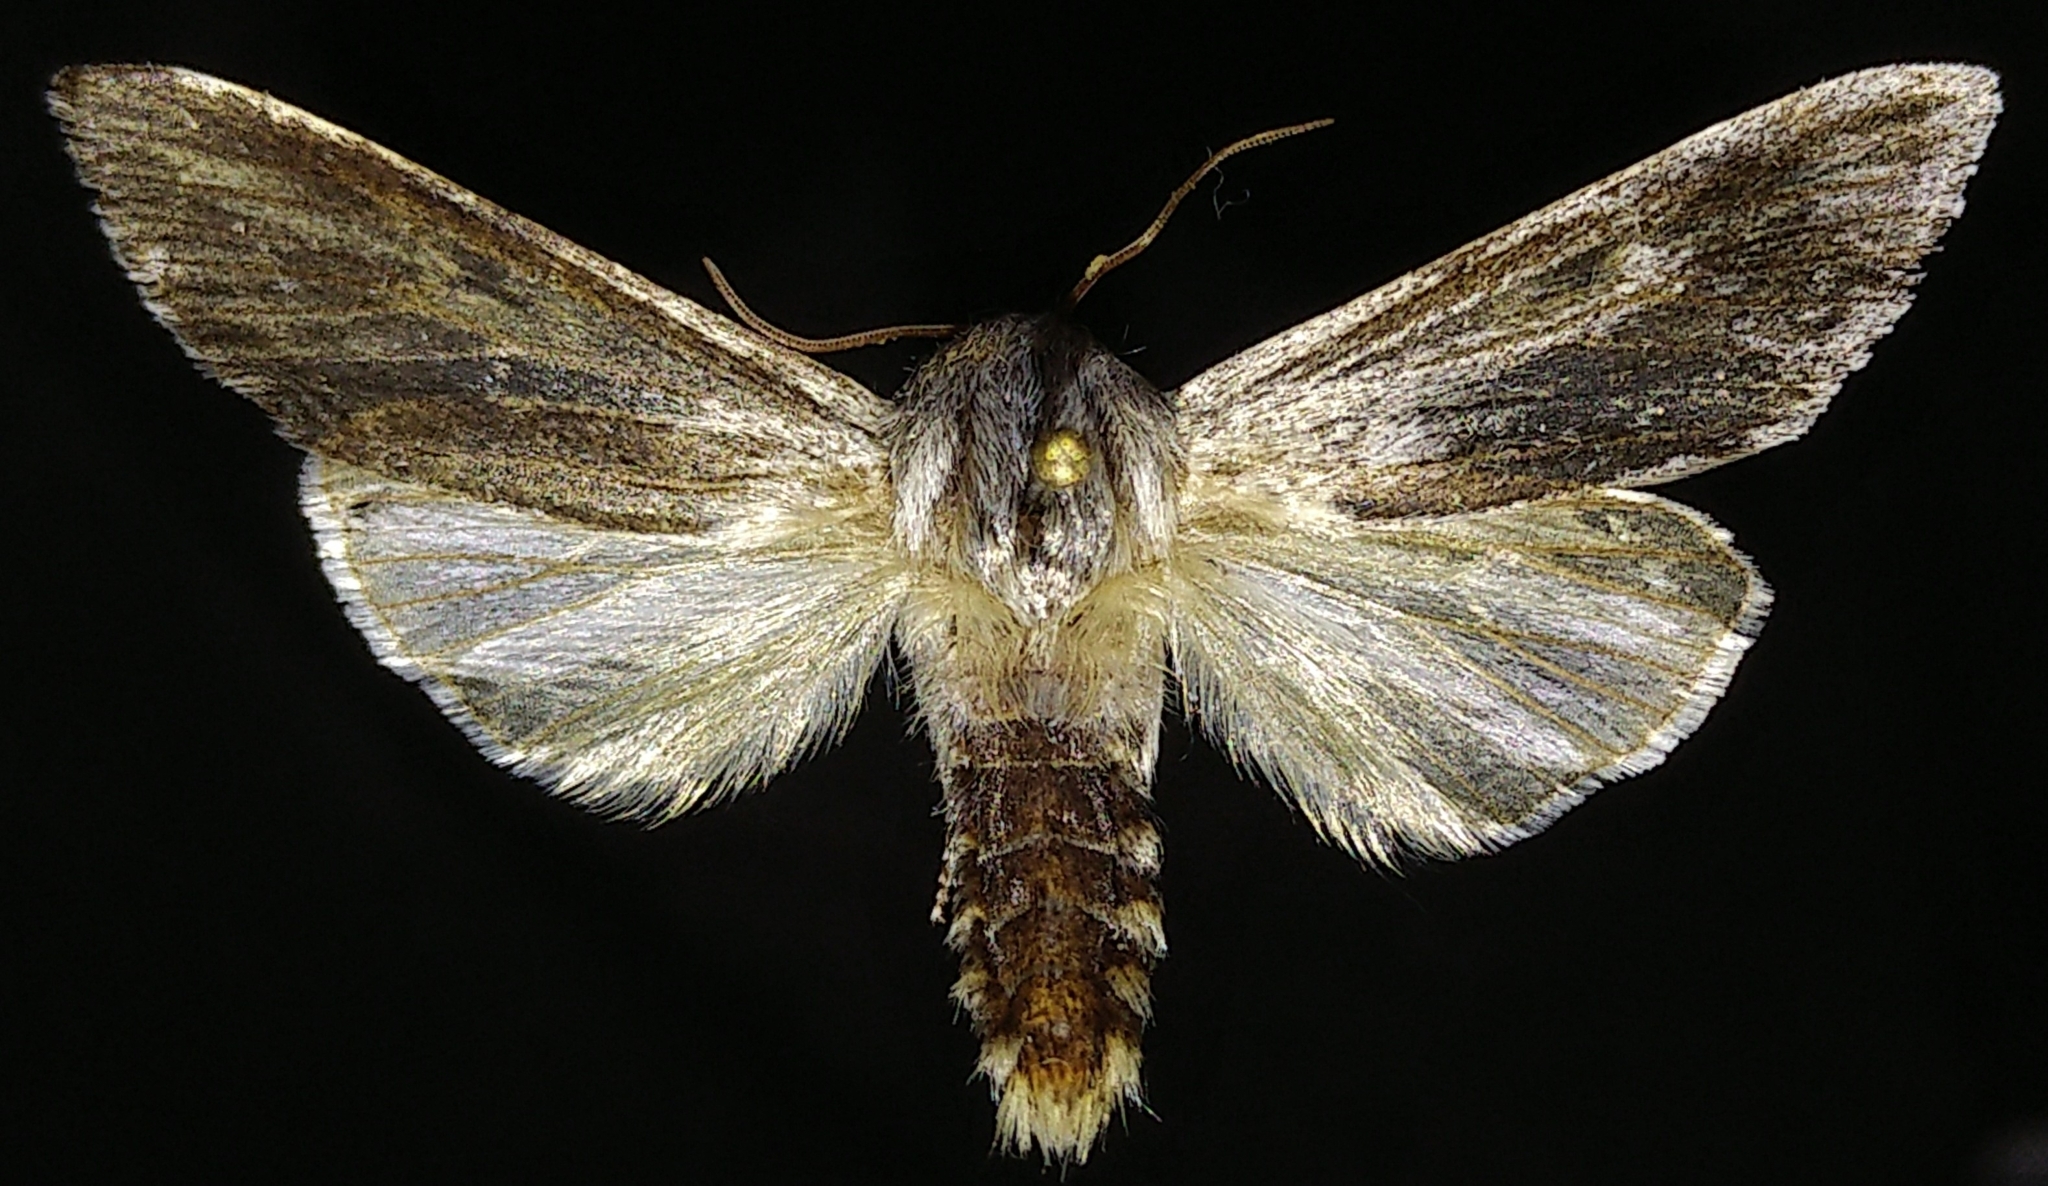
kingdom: Animalia
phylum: Arthropoda
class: Insecta
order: Lepidoptera
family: Noctuidae
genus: Acronicta
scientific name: Acronicta lanceolaria
